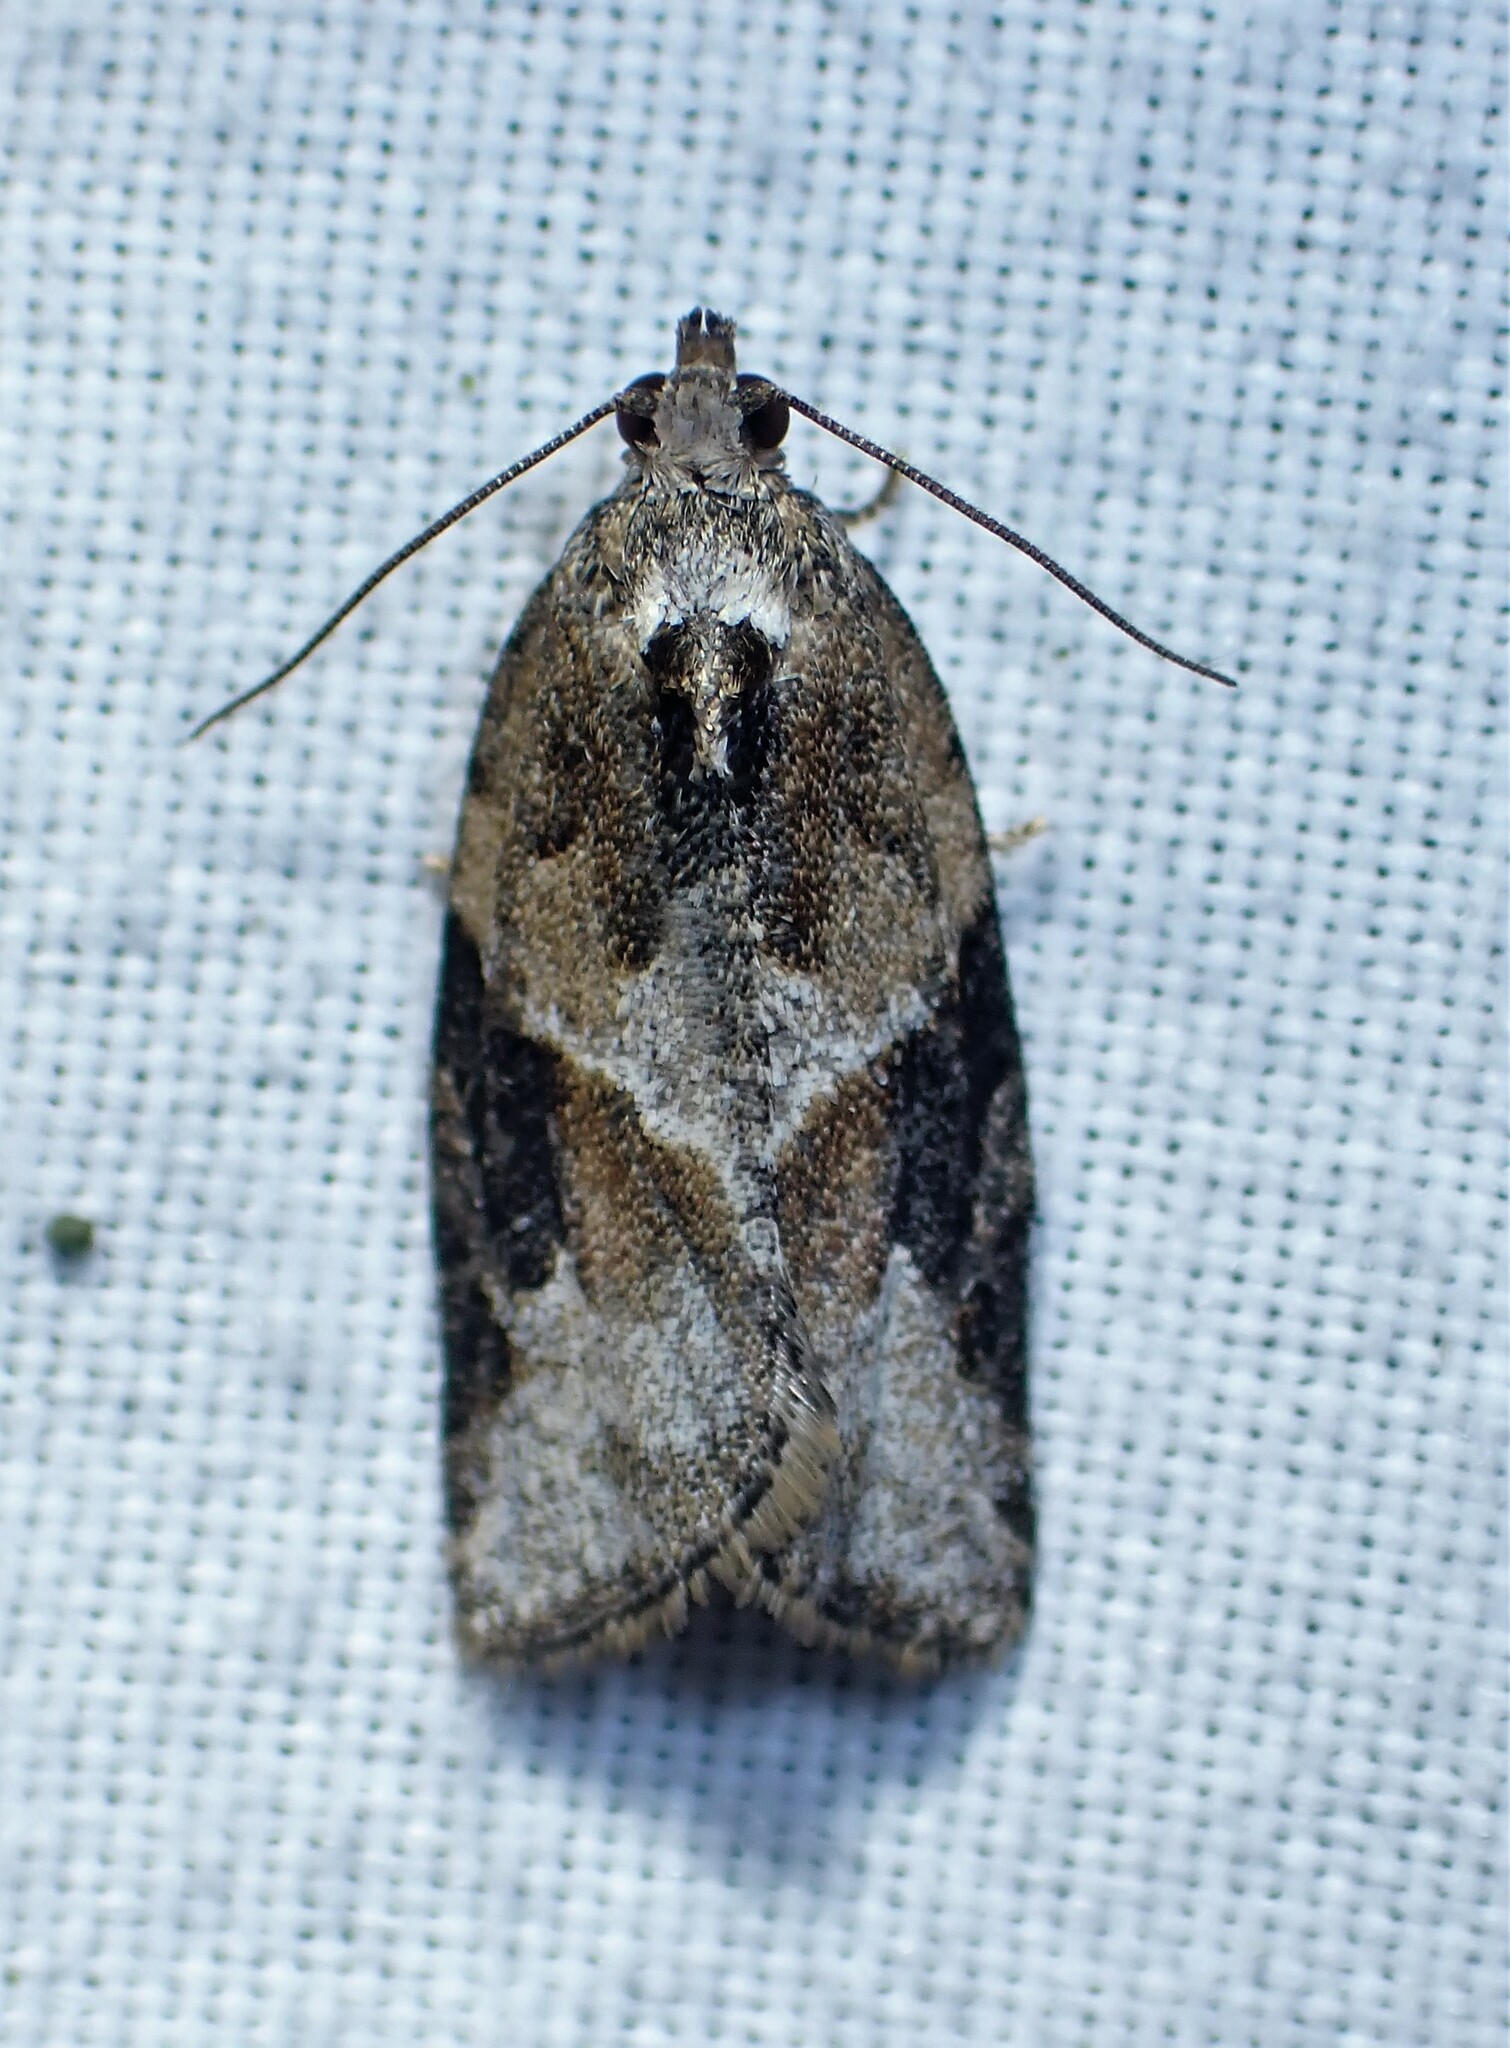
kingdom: Animalia
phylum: Arthropoda
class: Insecta
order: Lepidoptera
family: Tortricidae
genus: Argyrotaenia
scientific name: Argyrotaenia mariana
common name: Gray-banded leafroller moth
